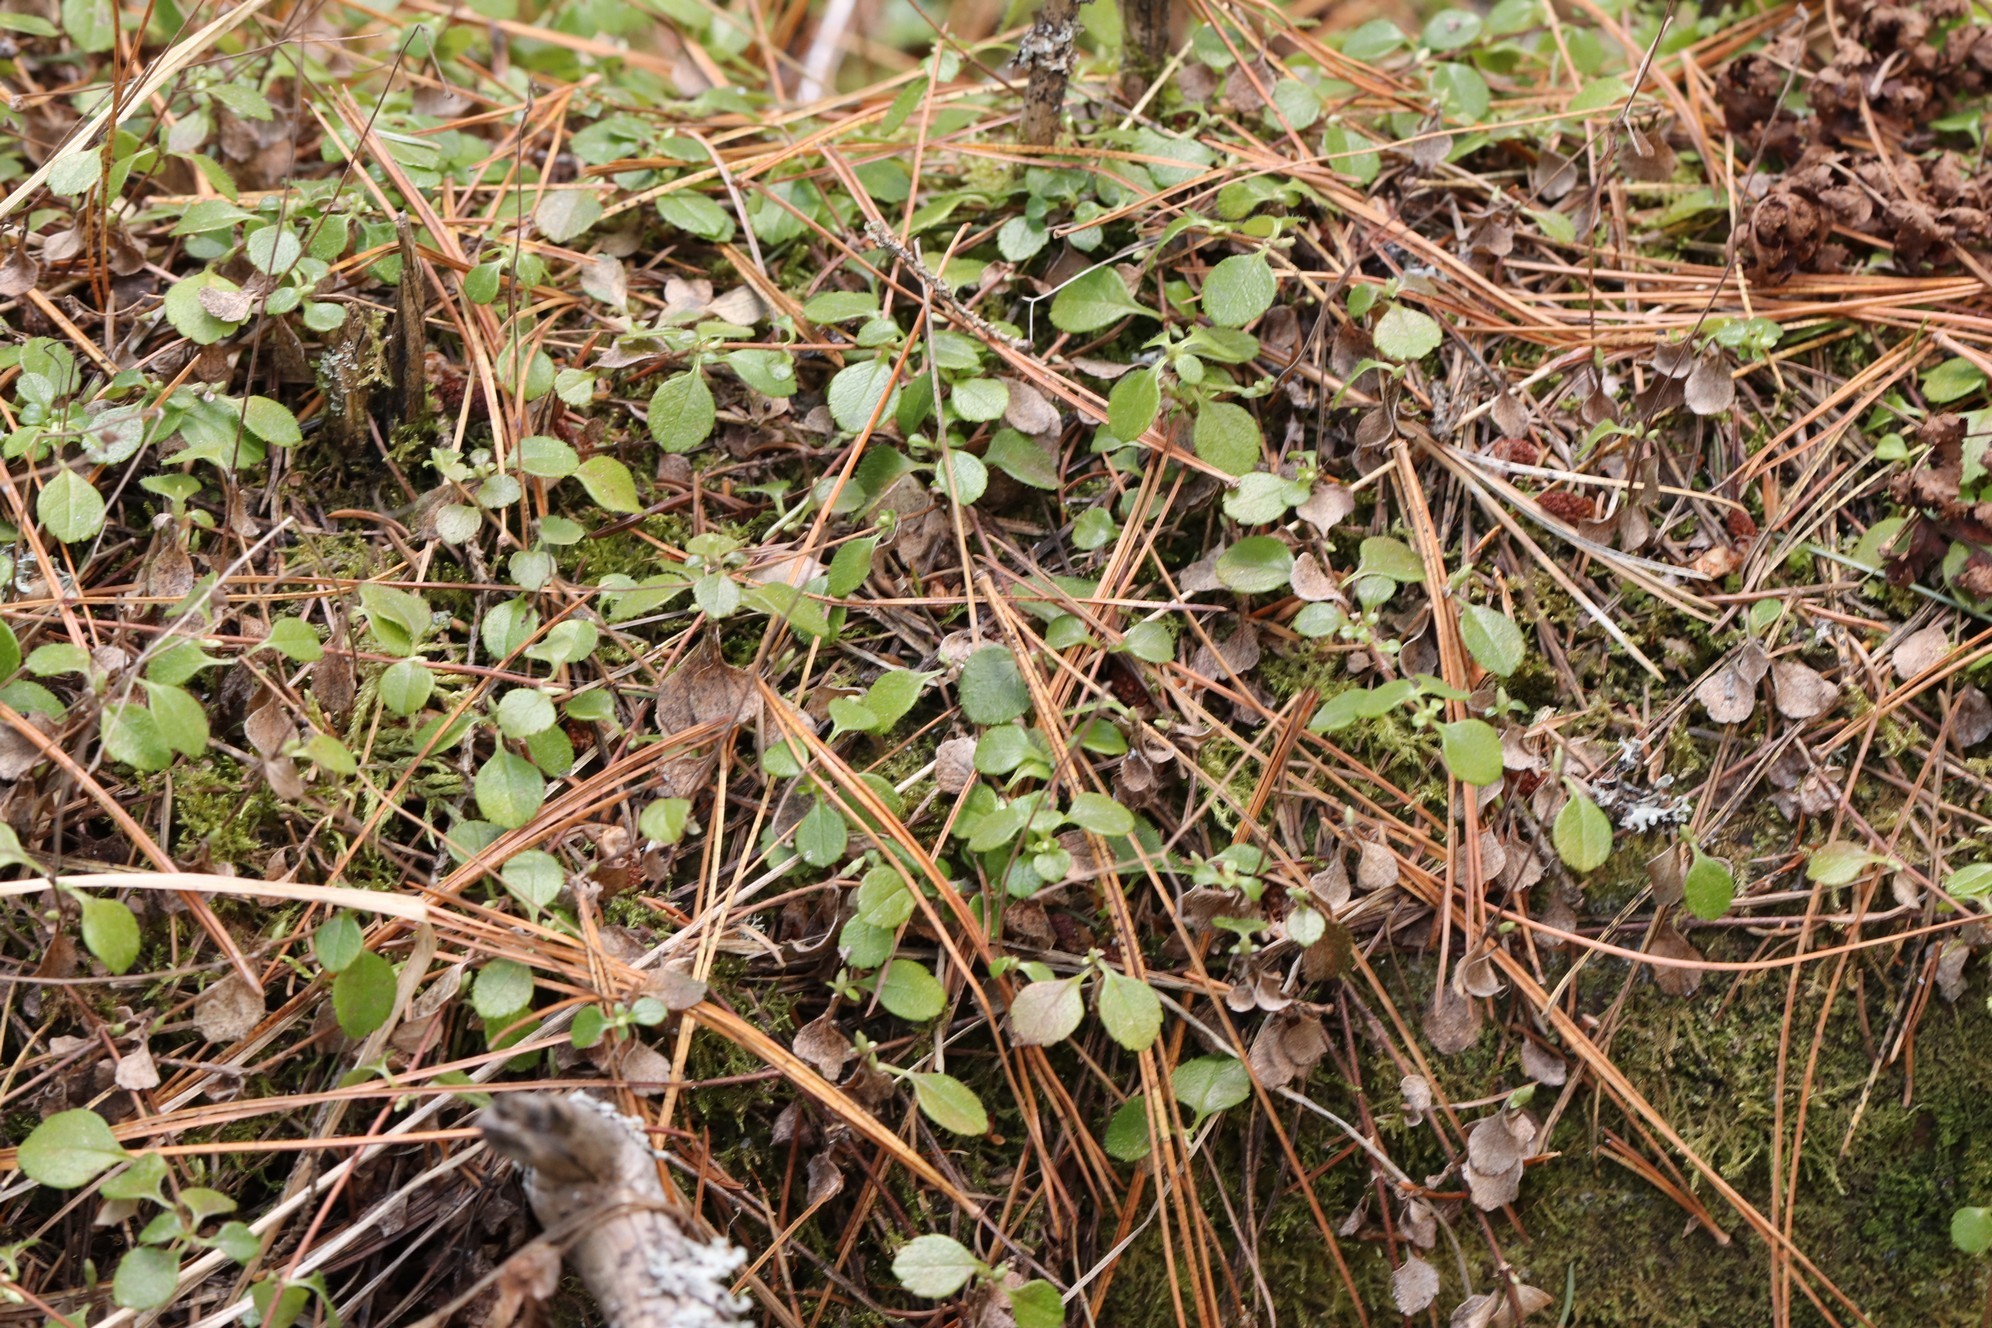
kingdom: Plantae
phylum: Tracheophyta
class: Magnoliopsida
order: Dipsacales
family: Caprifoliaceae
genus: Linnaea
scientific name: Linnaea borealis
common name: Twinflower
